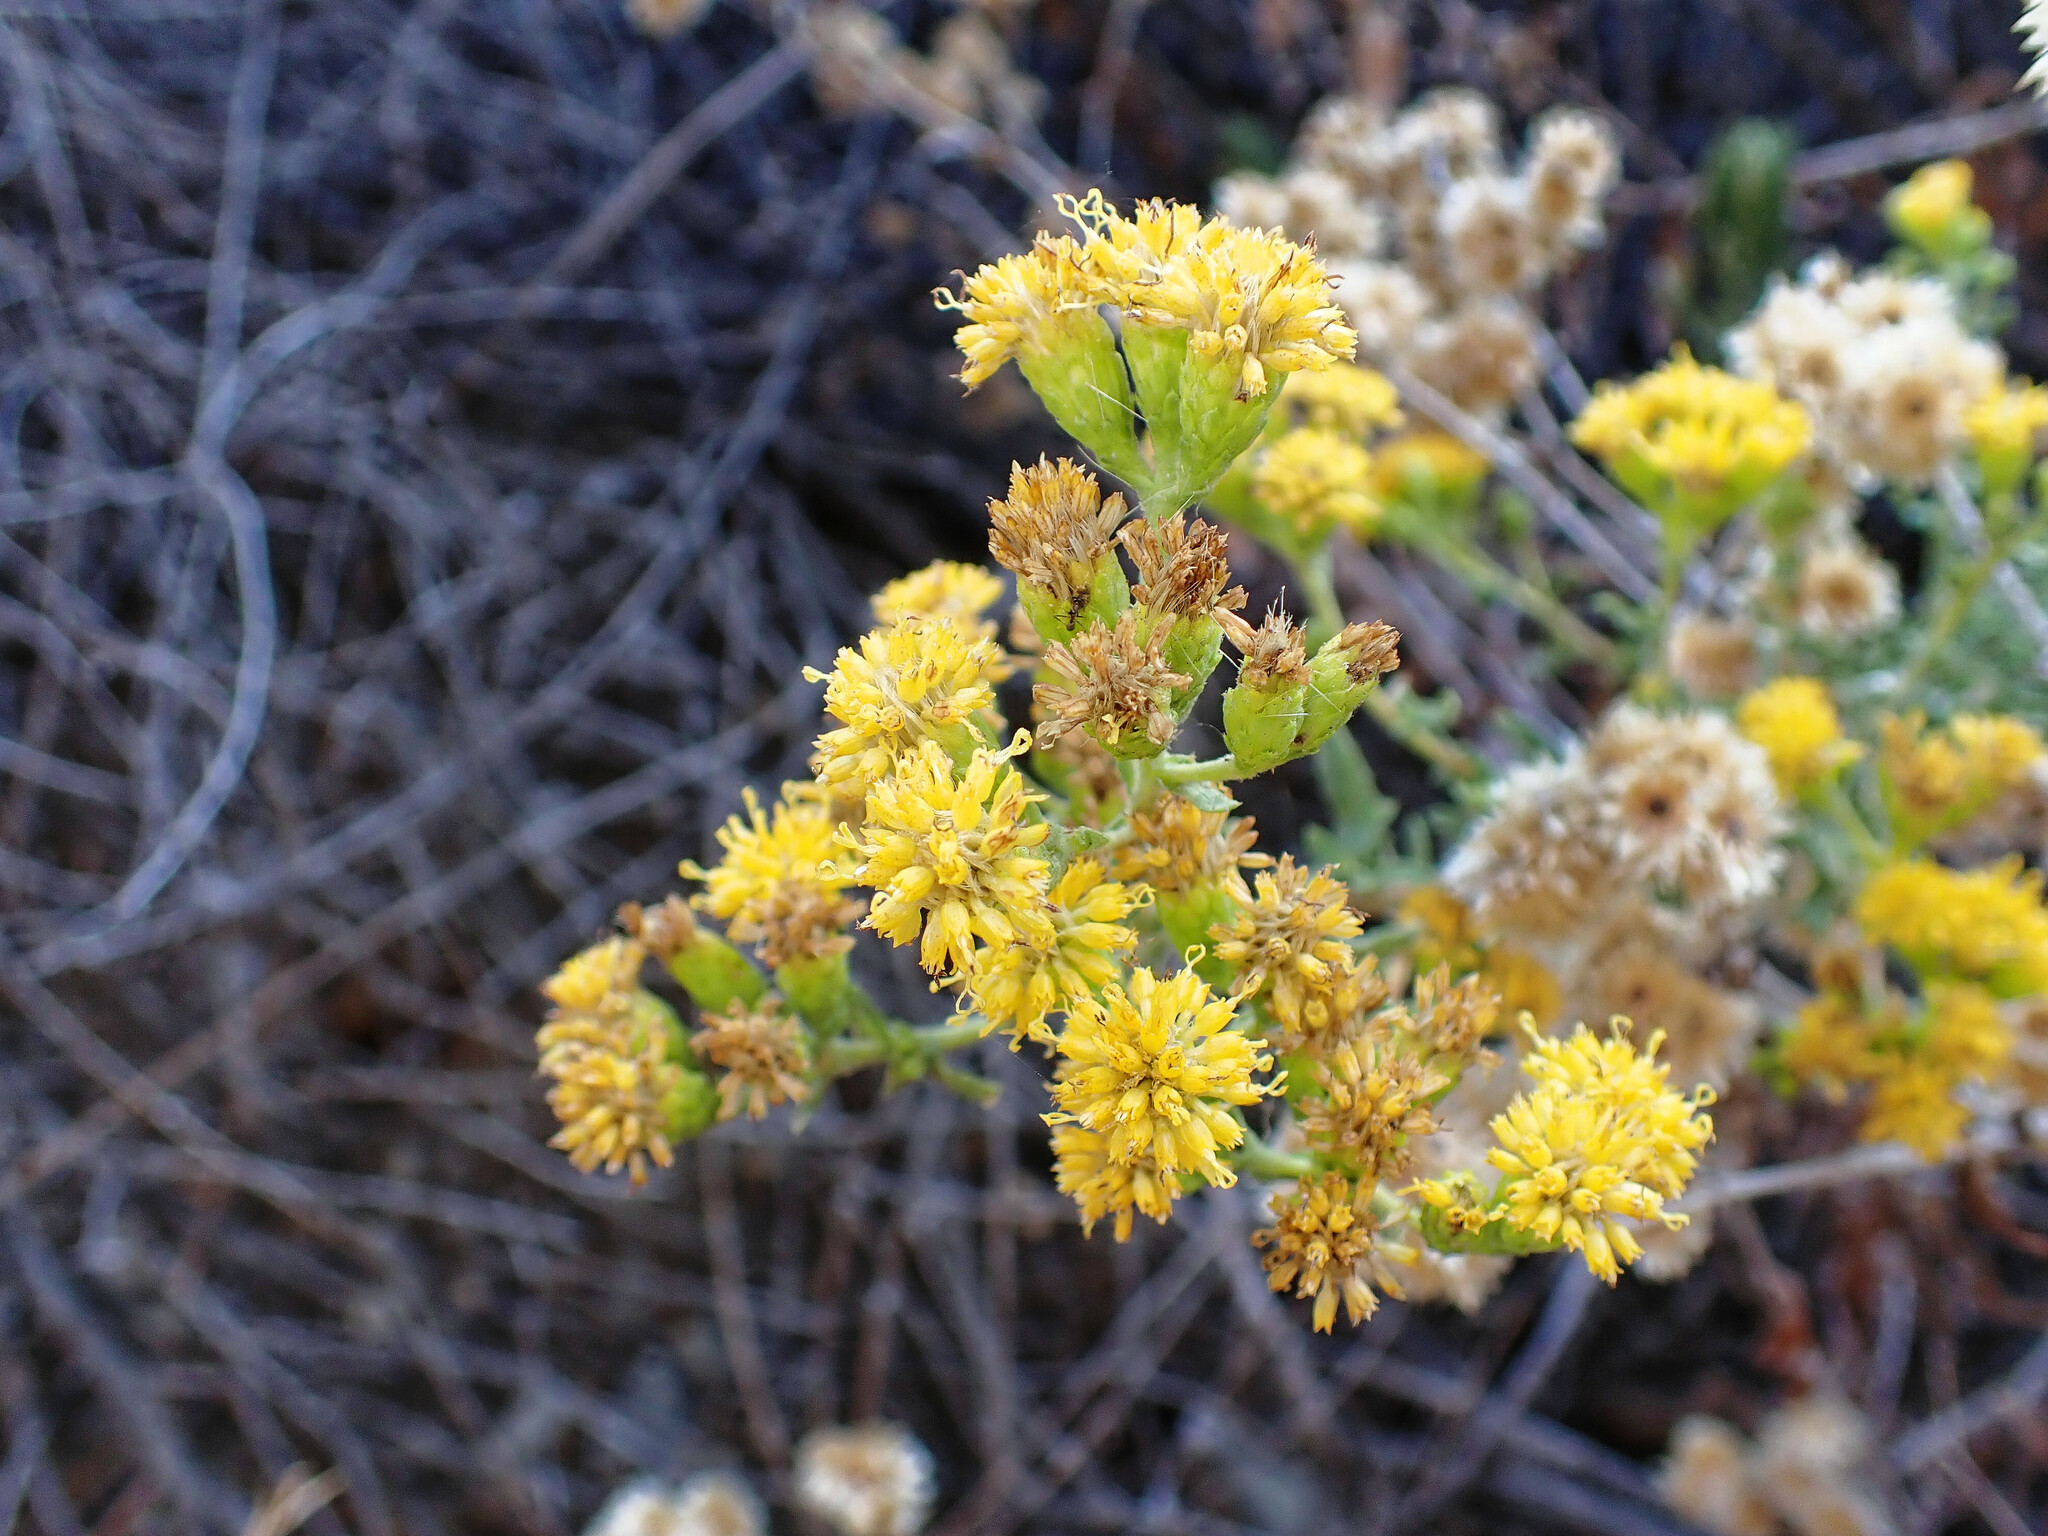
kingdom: Plantae
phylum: Tracheophyta
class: Magnoliopsida
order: Asterales
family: Asteraceae
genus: Isocoma
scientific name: Isocoma menziesii
